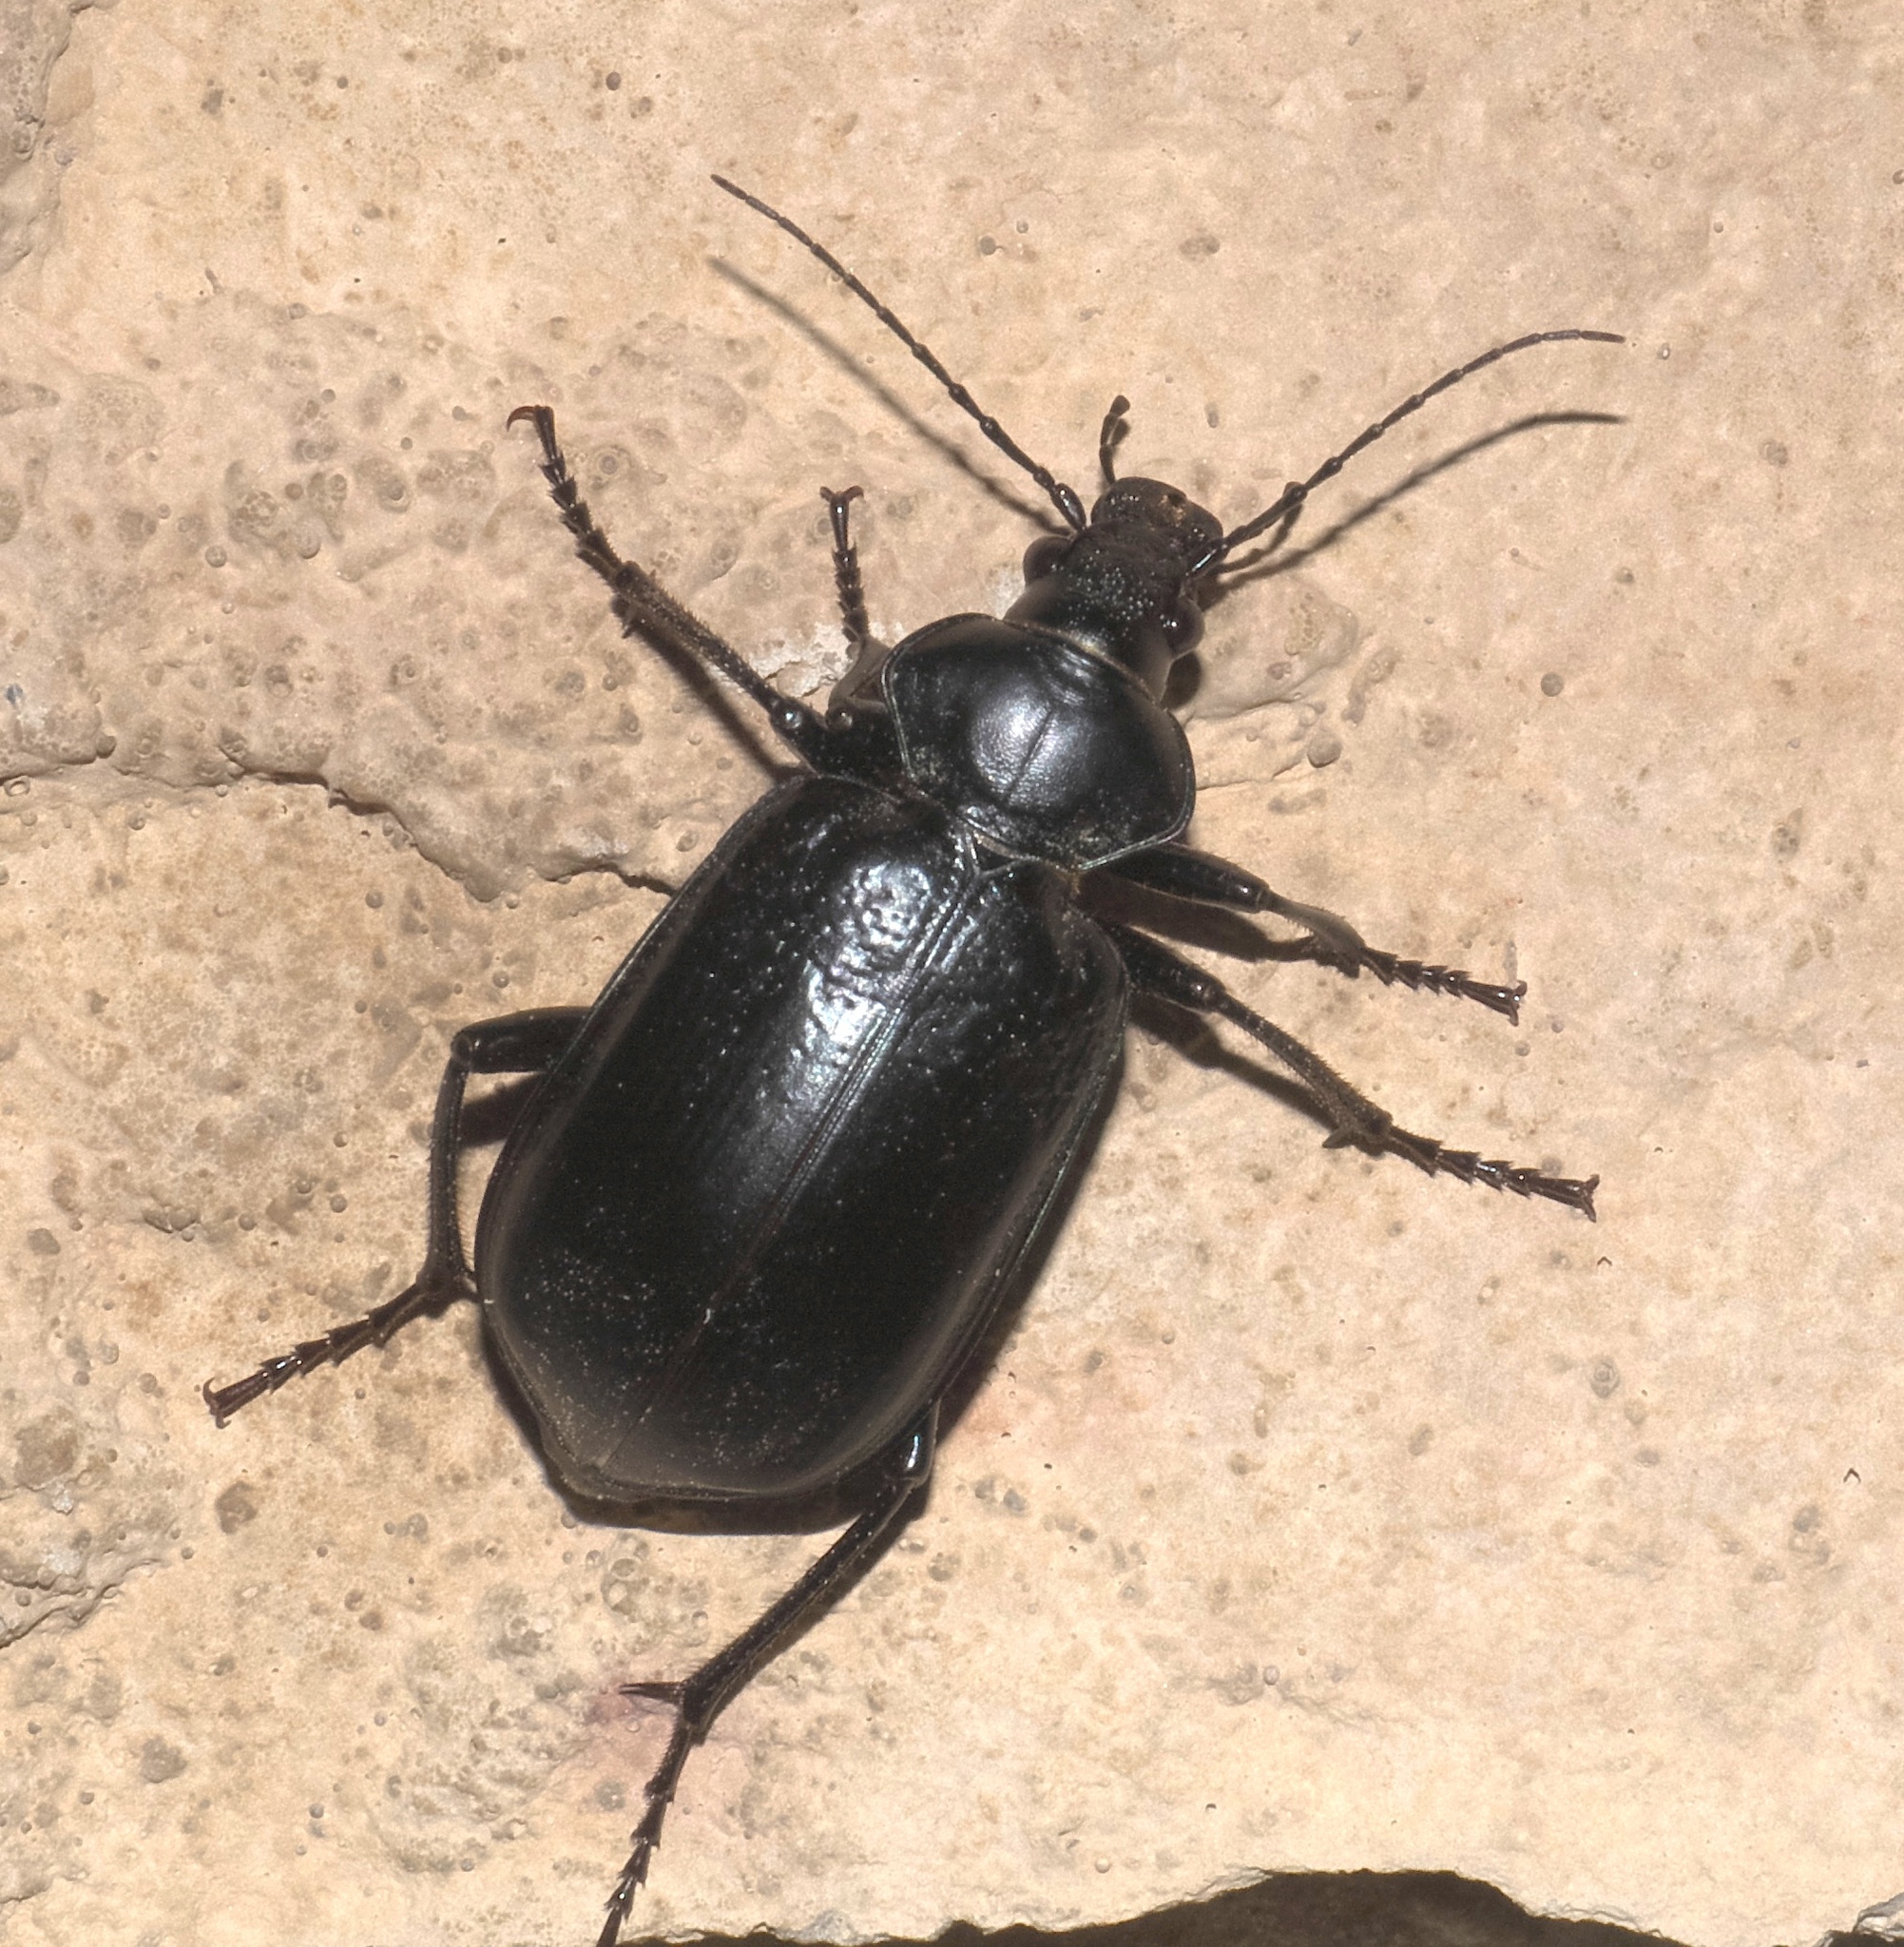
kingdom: Animalia
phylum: Arthropoda
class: Insecta
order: Coleoptera
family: Carabidae
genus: Calosoma
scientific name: Calosoma marginale
